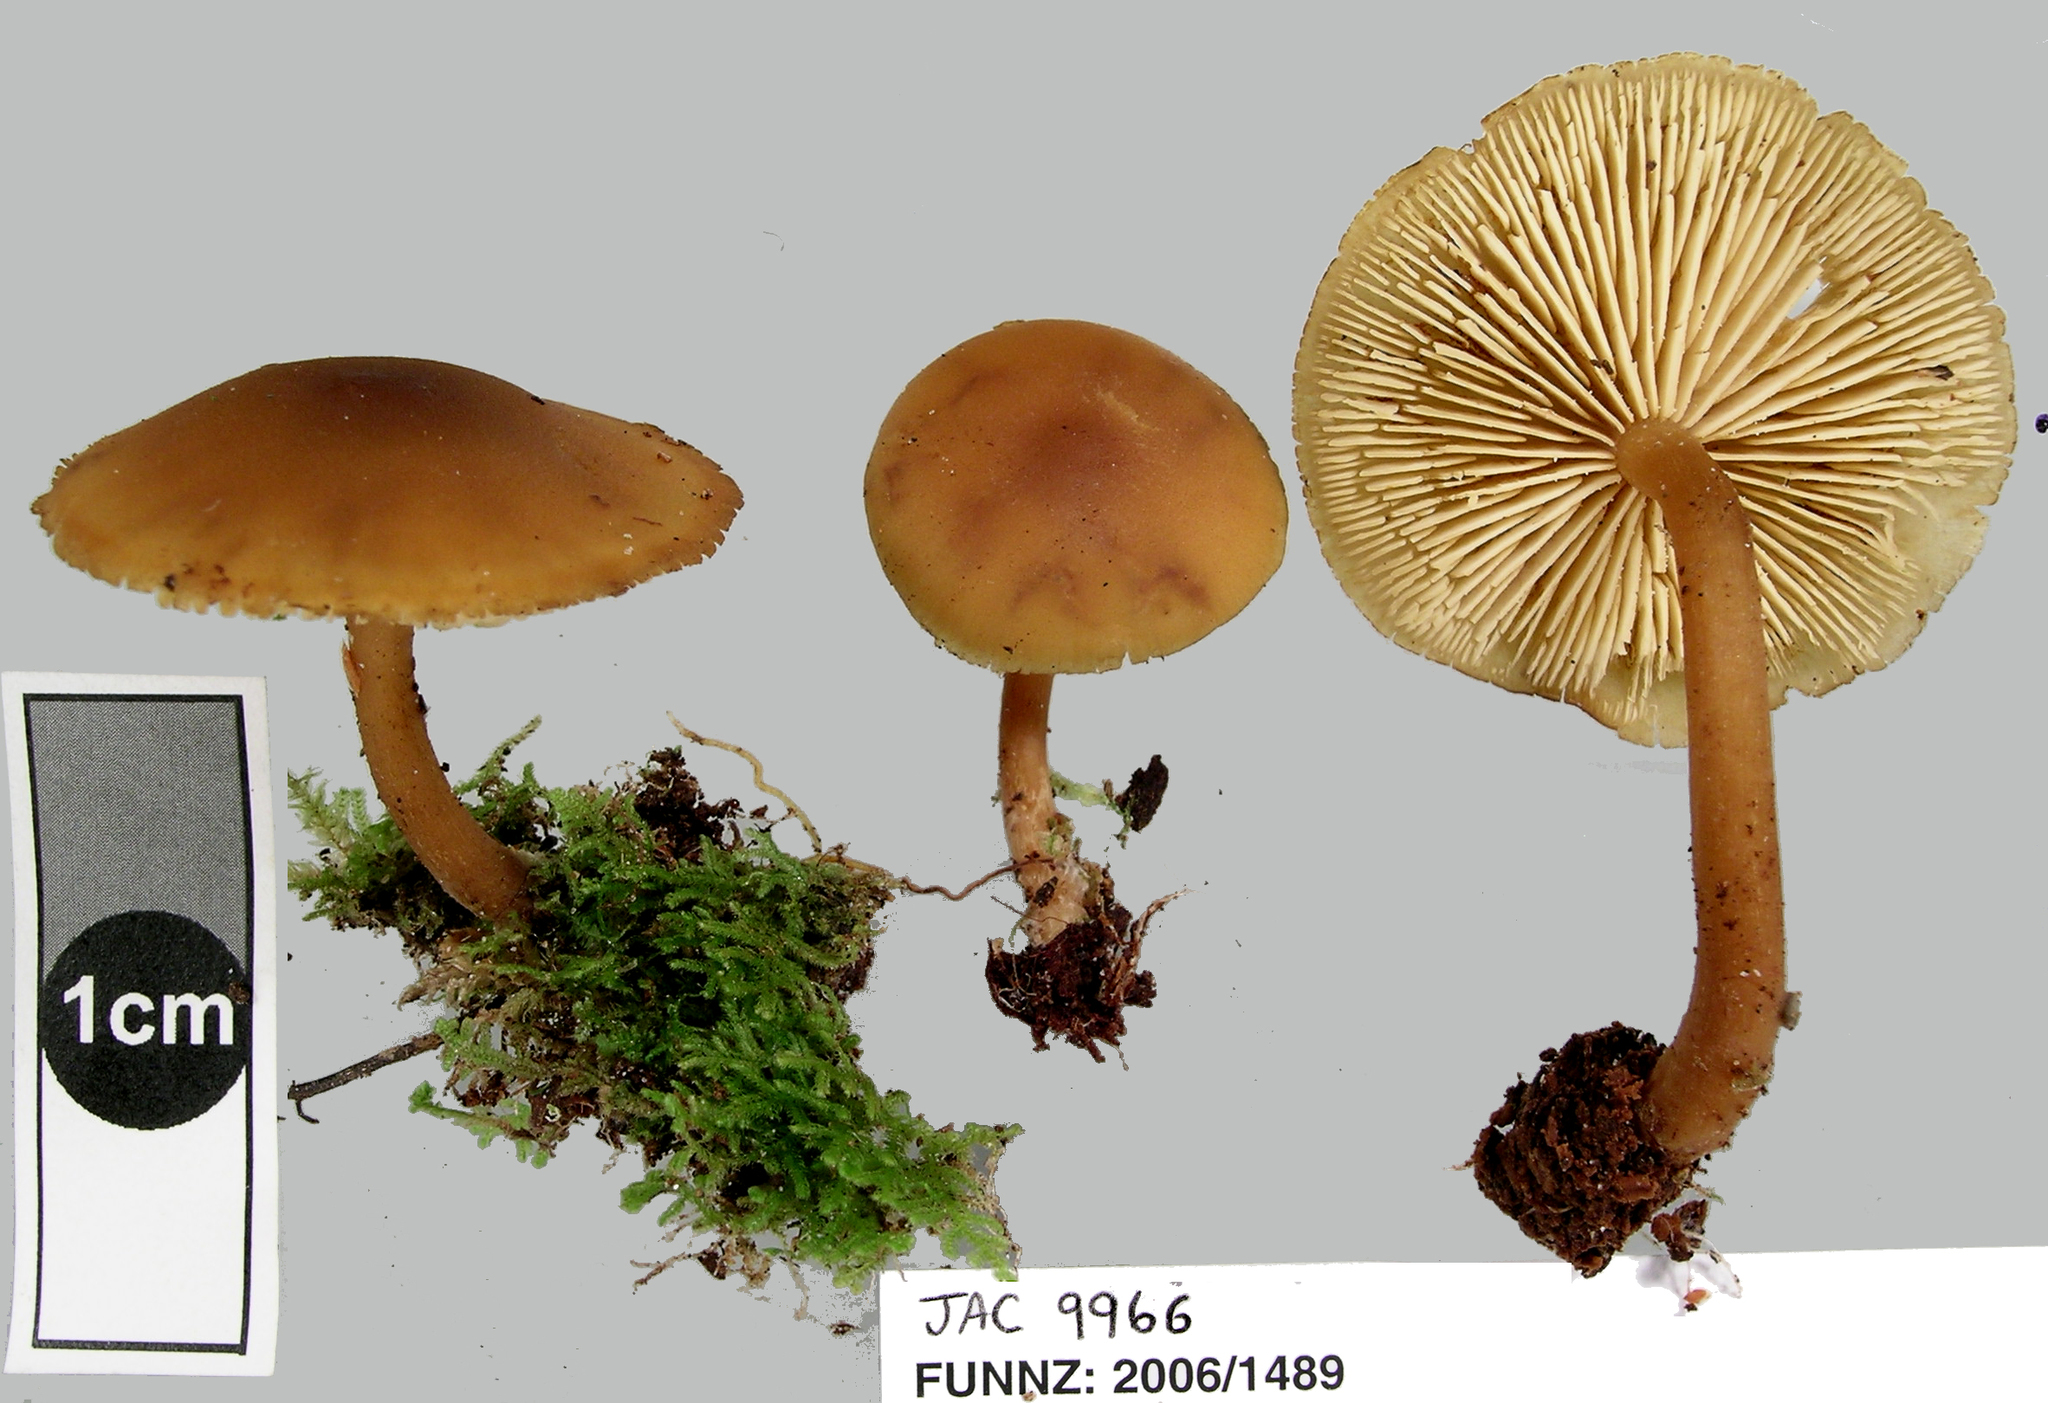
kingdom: Fungi
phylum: Basidiomycota
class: Agaricomycetes
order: Agaricales
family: Tricholomataceae
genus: Cystoderma
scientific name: Cystoderma muscicola
